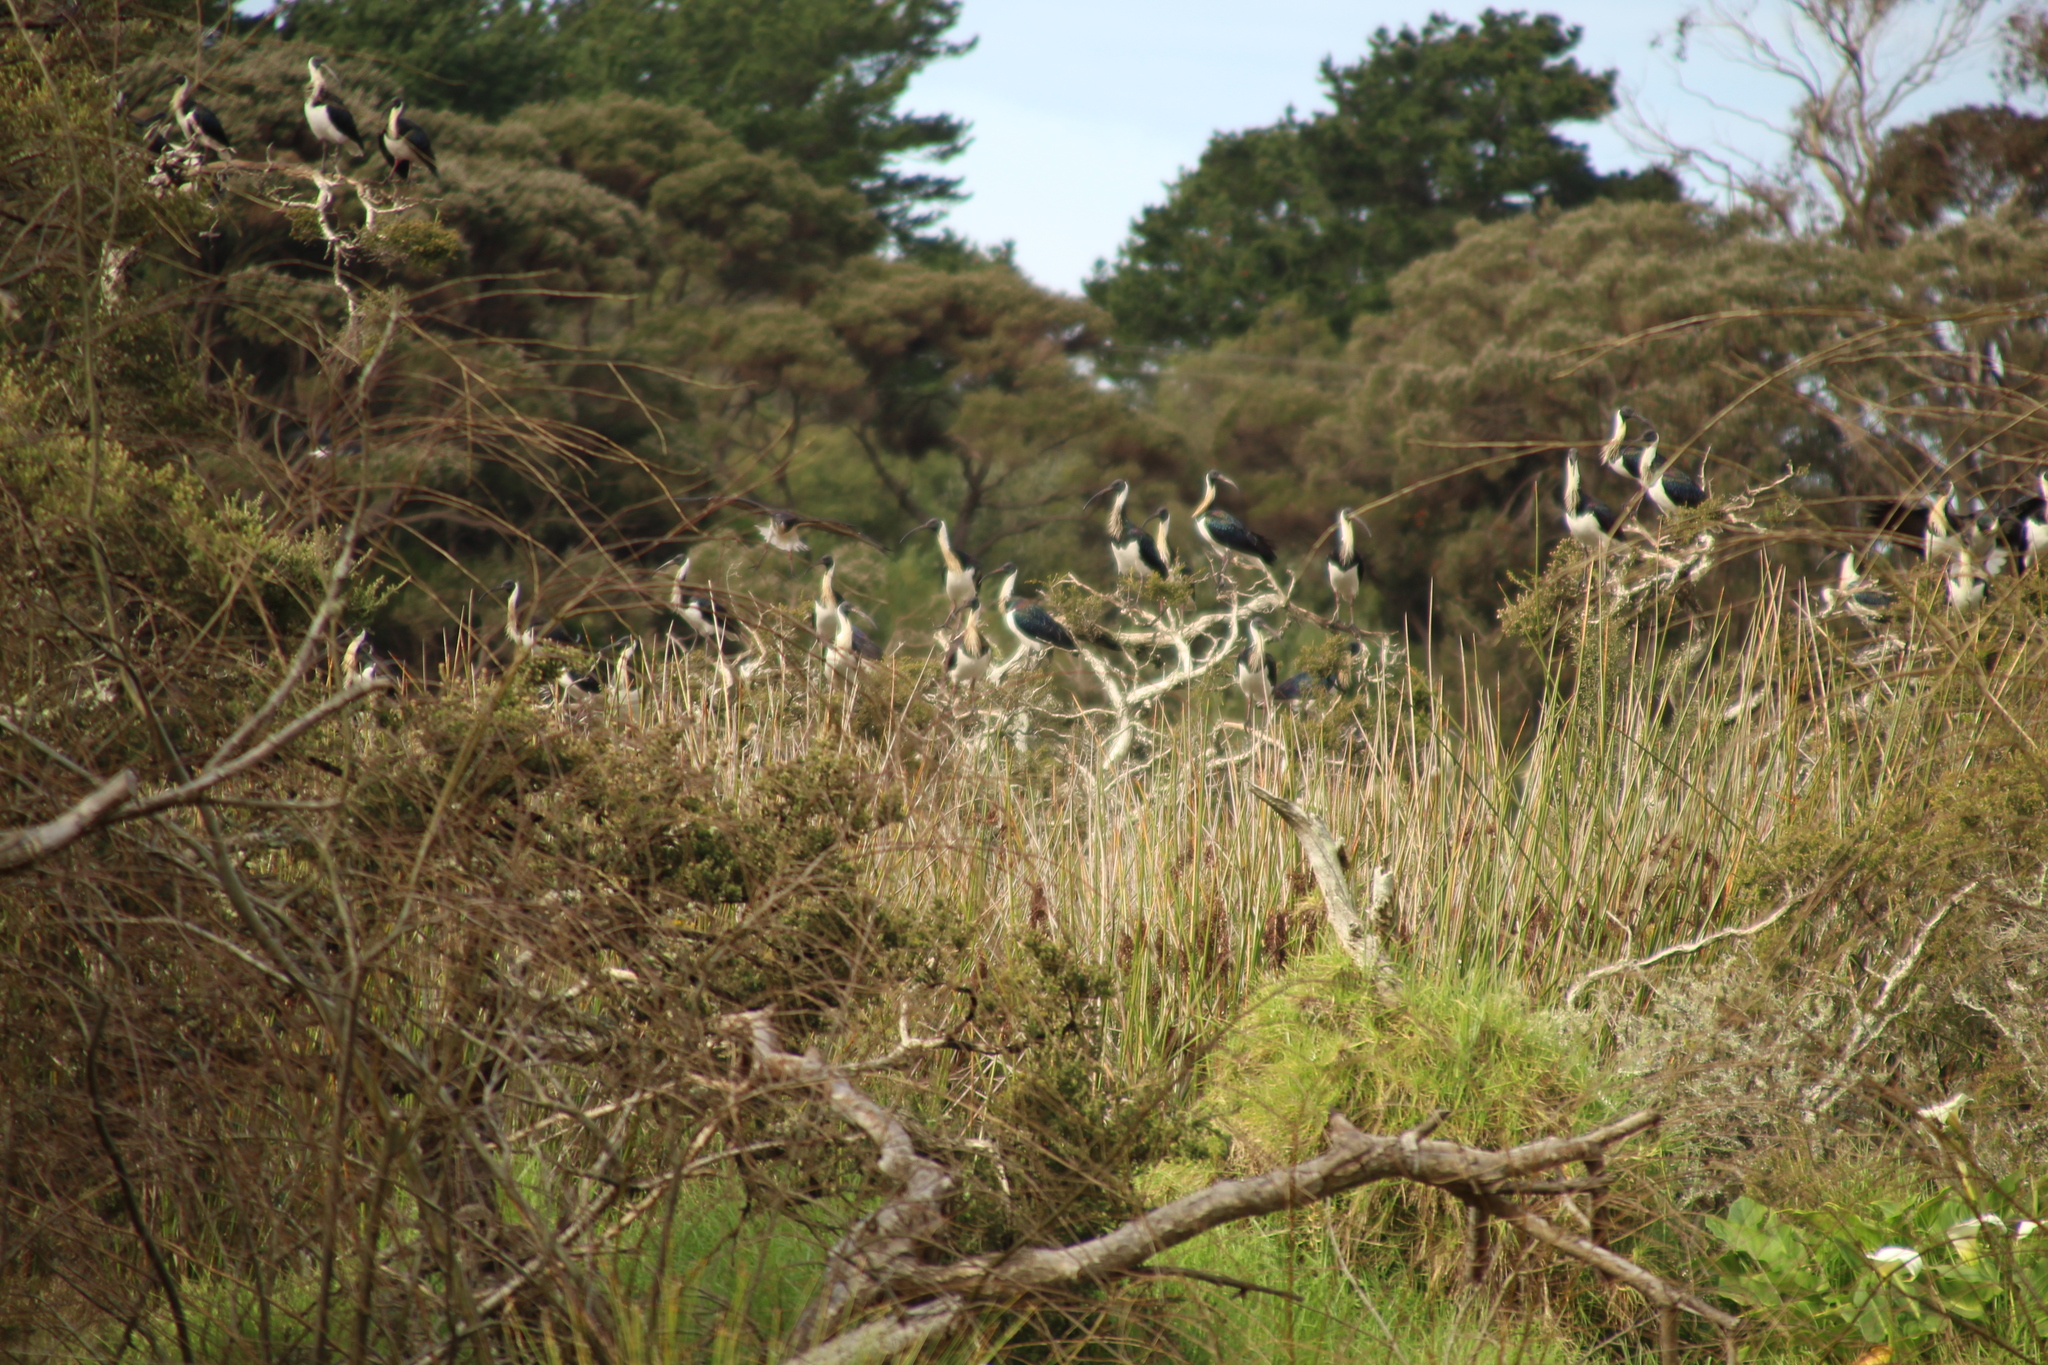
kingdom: Animalia
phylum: Chordata
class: Aves
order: Pelecaniformes
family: Threskiornithidae
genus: Threskiornis
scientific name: Threskiornis spinicollis
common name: Straw-necked ibis
